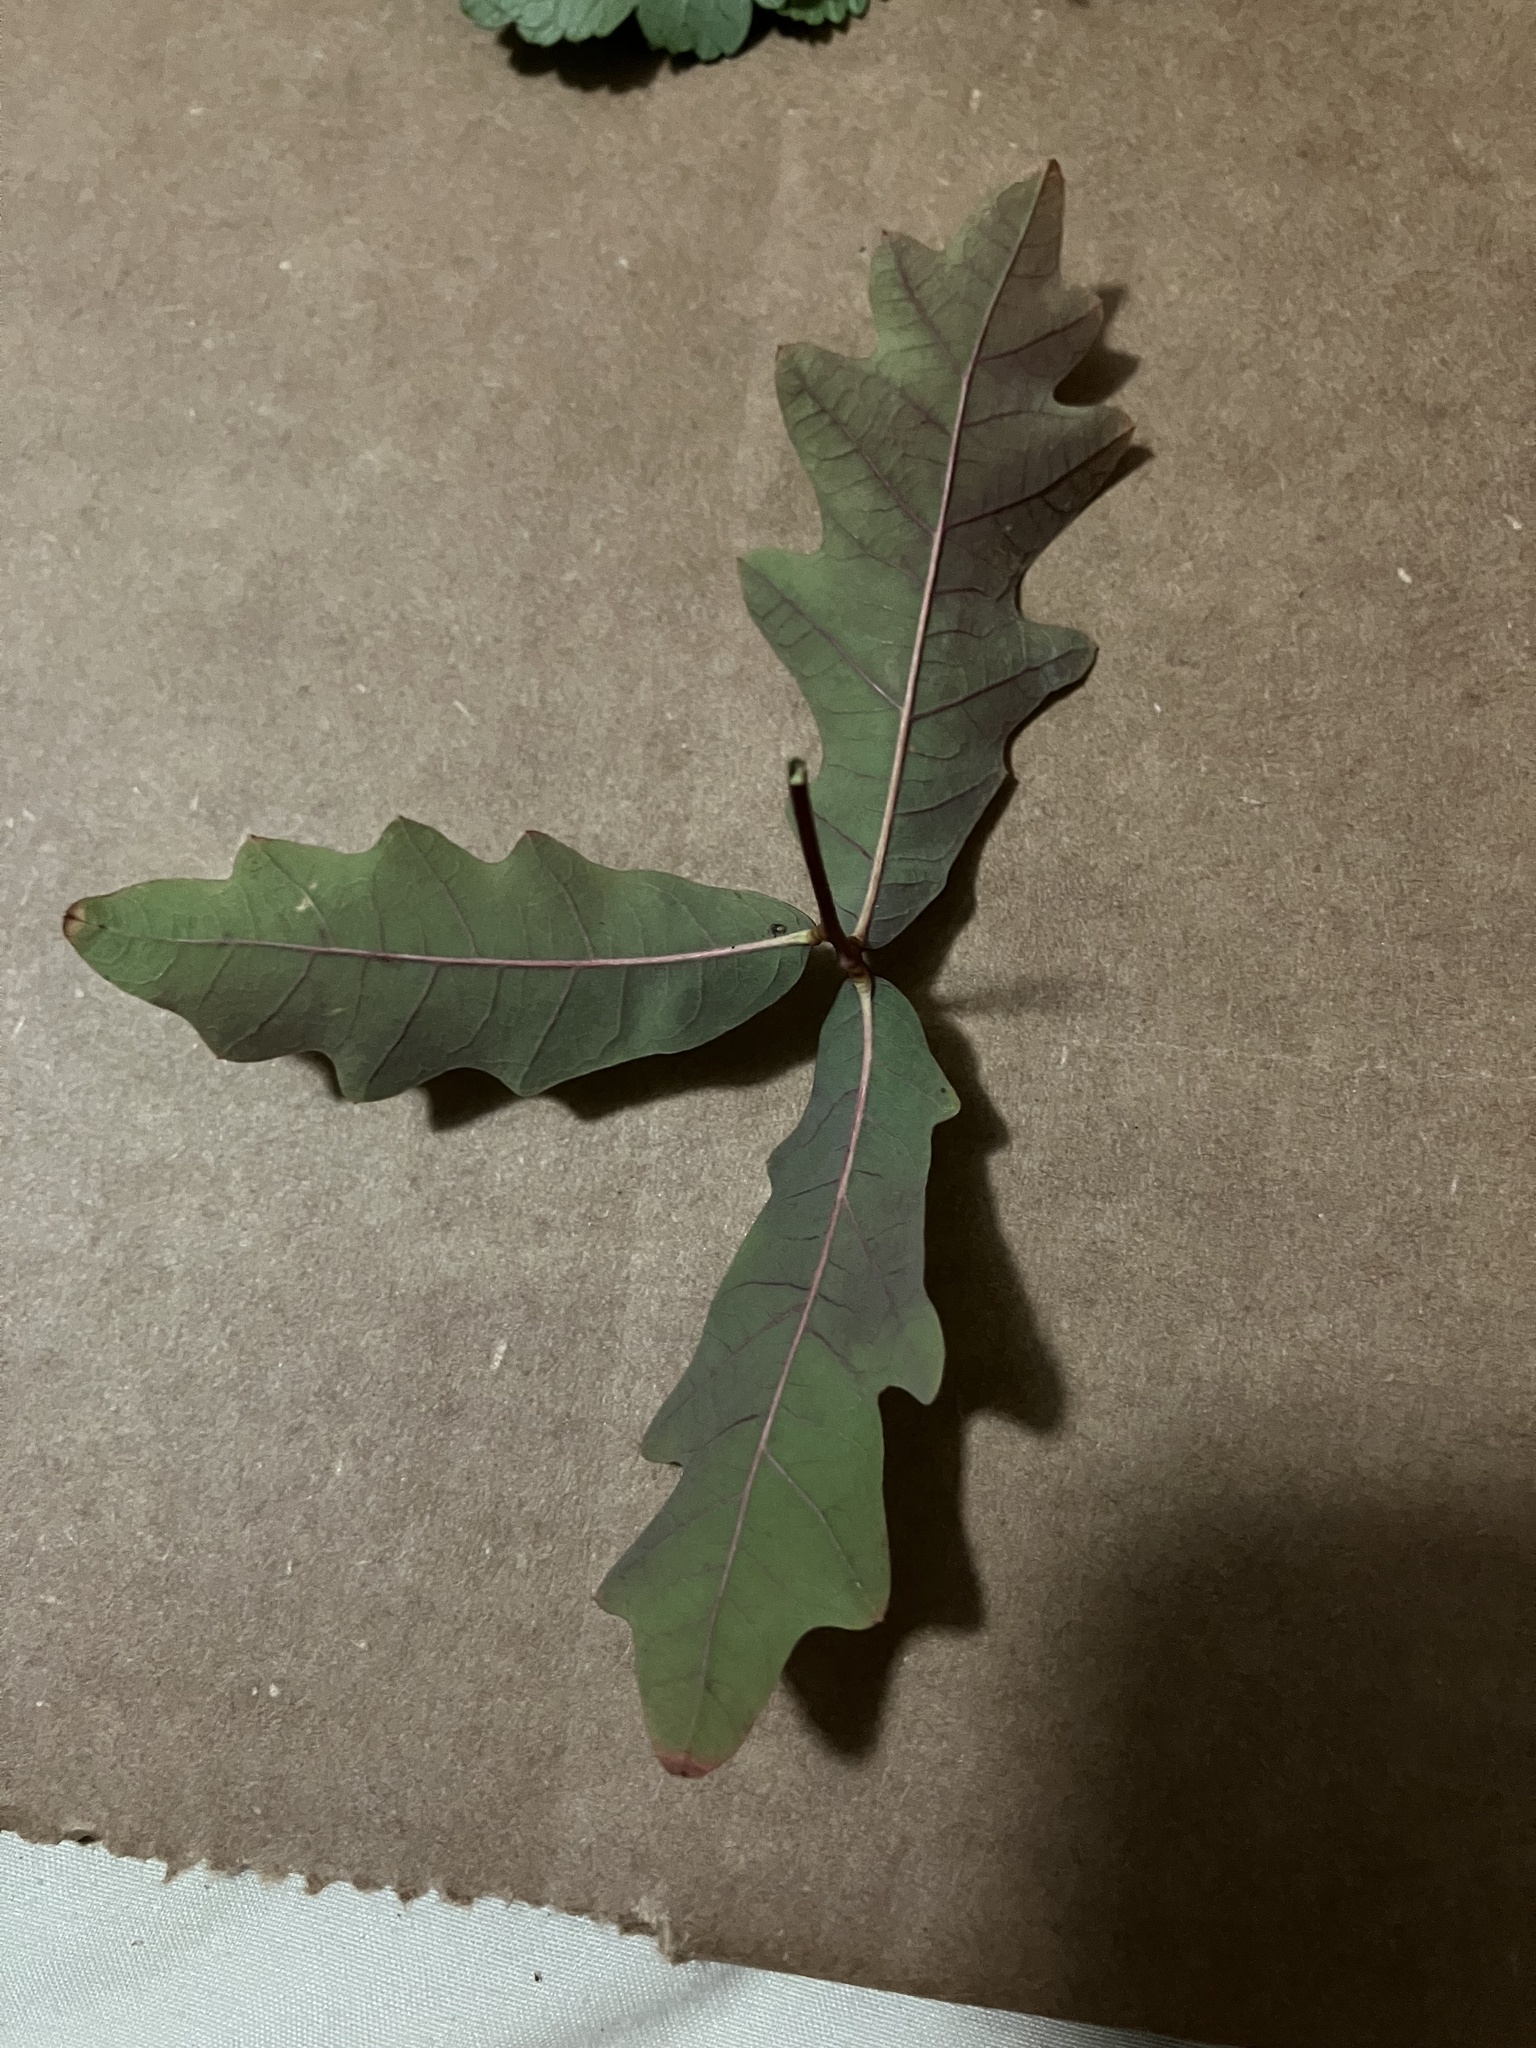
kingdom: Plantae
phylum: Tracheophyta
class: Magnoliopsida
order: Fagales
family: Fagaceae
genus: Quercus
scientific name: Quercus alba
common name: White oak
